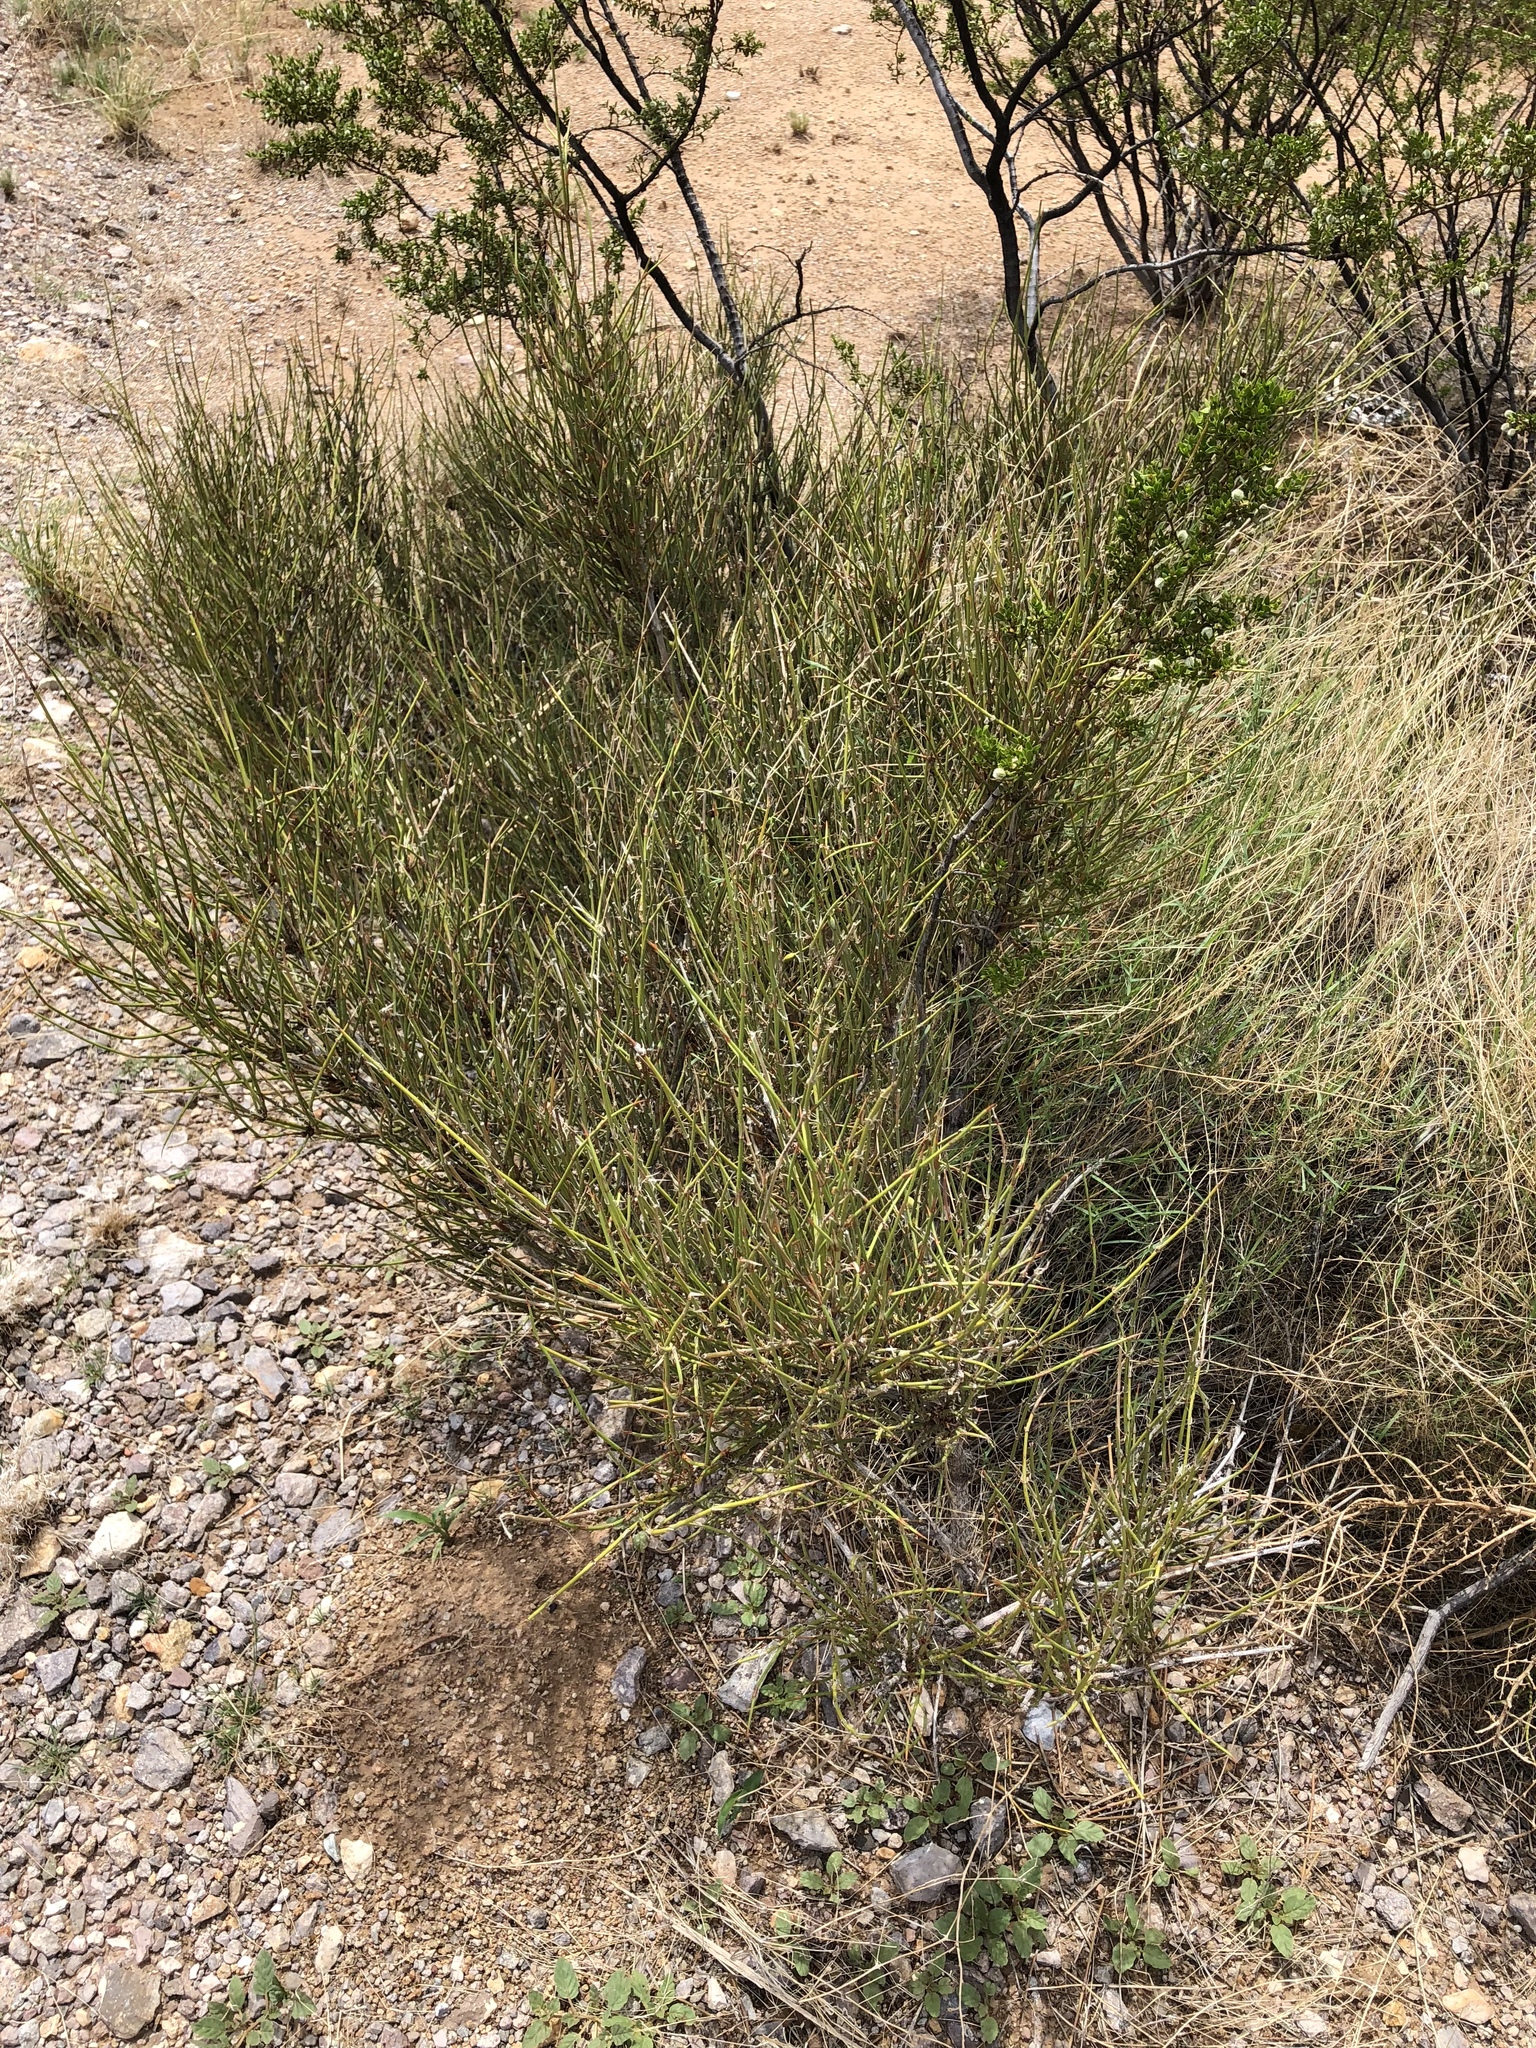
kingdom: Plantae
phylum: Tracheophyta
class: Gnetopsida
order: Ephedrales
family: Ephedraceae
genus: Ephedra
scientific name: Ephedra trifurca
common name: Mexican-tea
